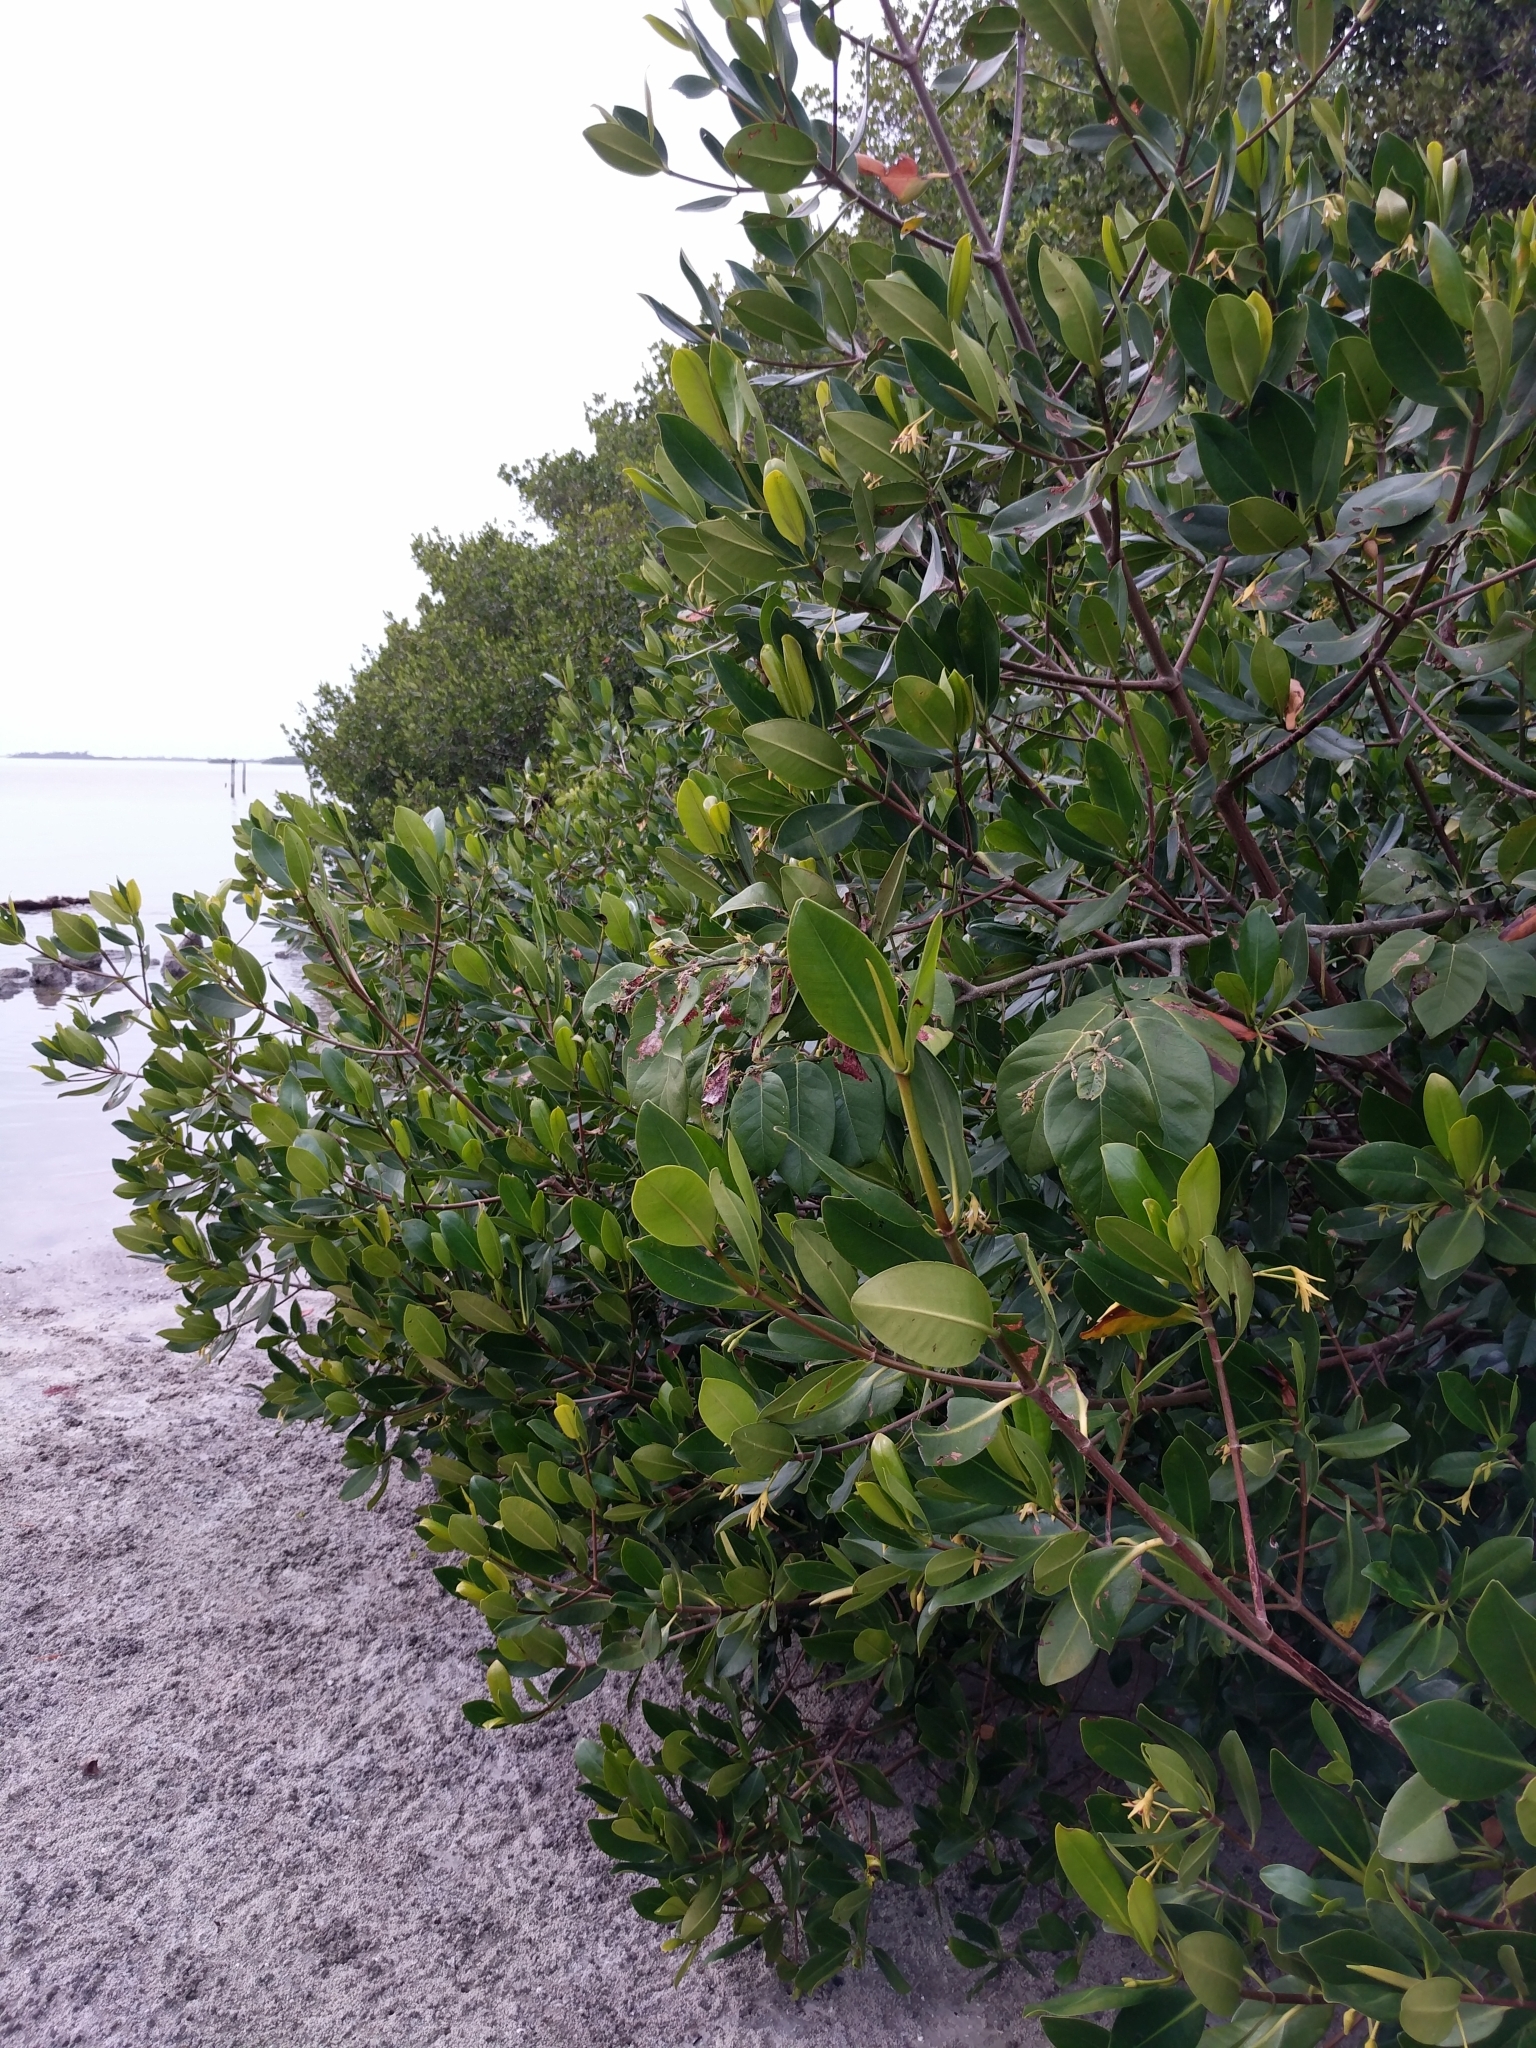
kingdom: Plantae
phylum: Tracheophyta
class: Magnoliopsida
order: Malpighiales
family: Rhizophoraceae
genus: Rhizophora
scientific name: Rhizophora mangle
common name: Red mangrove
